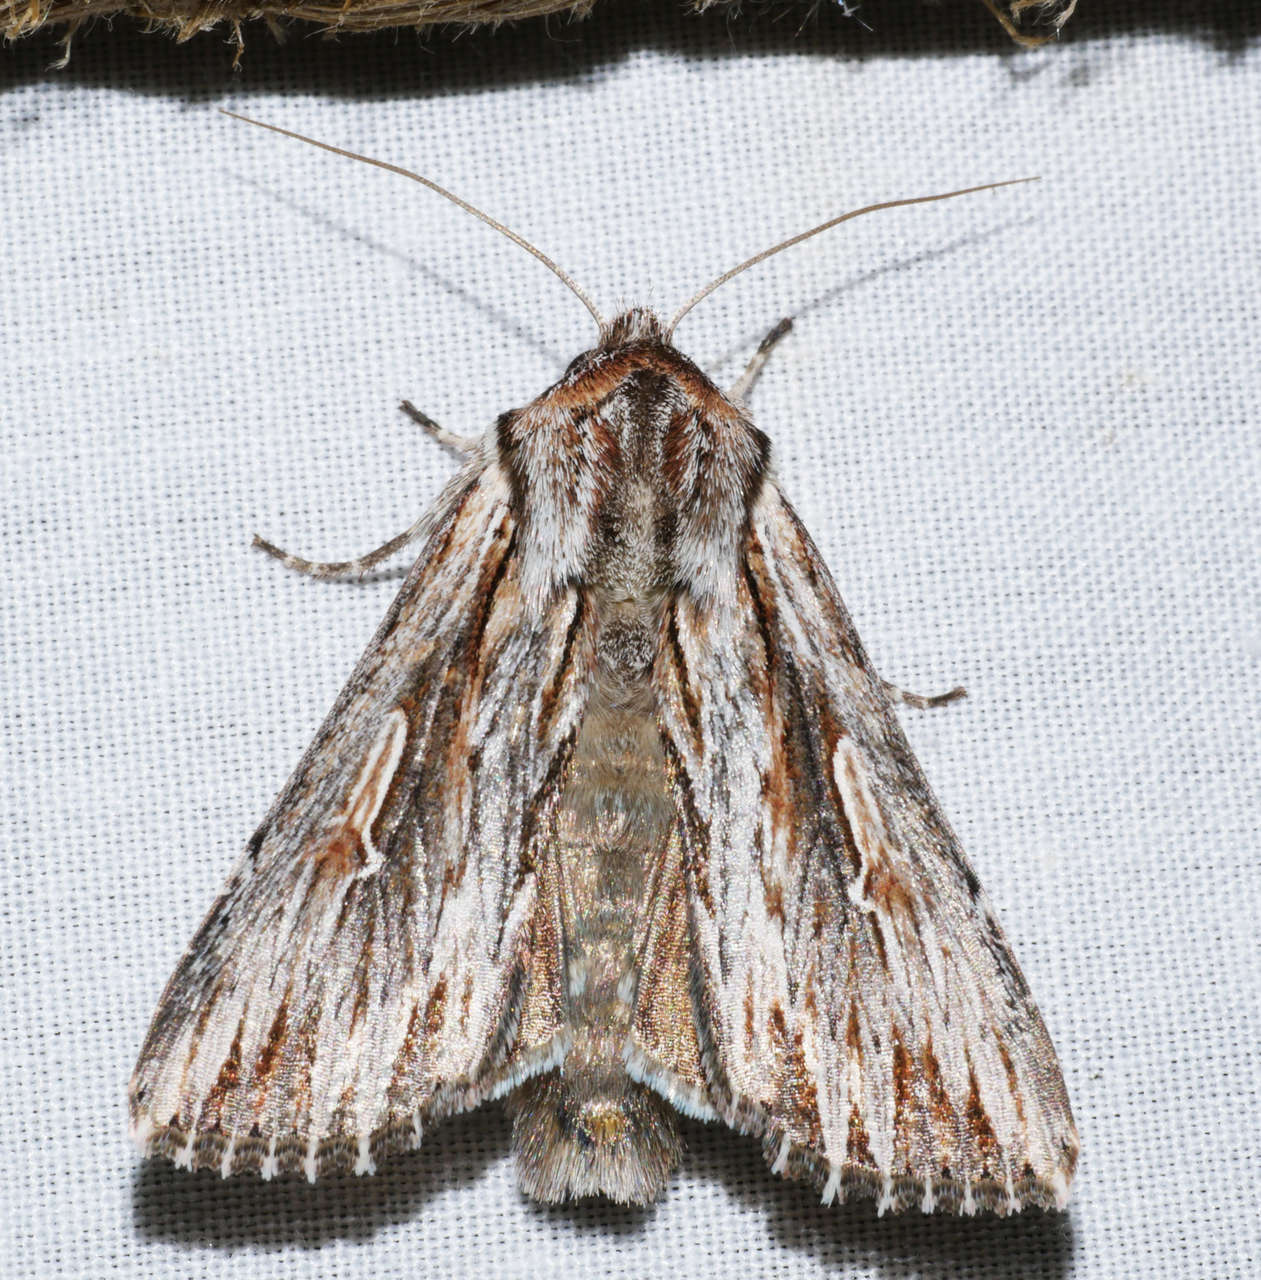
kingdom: Animalia
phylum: Arthropoda
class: Insecta
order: Lepidoptera
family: Noctuidae
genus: Persectania
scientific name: Persectania ewingii
